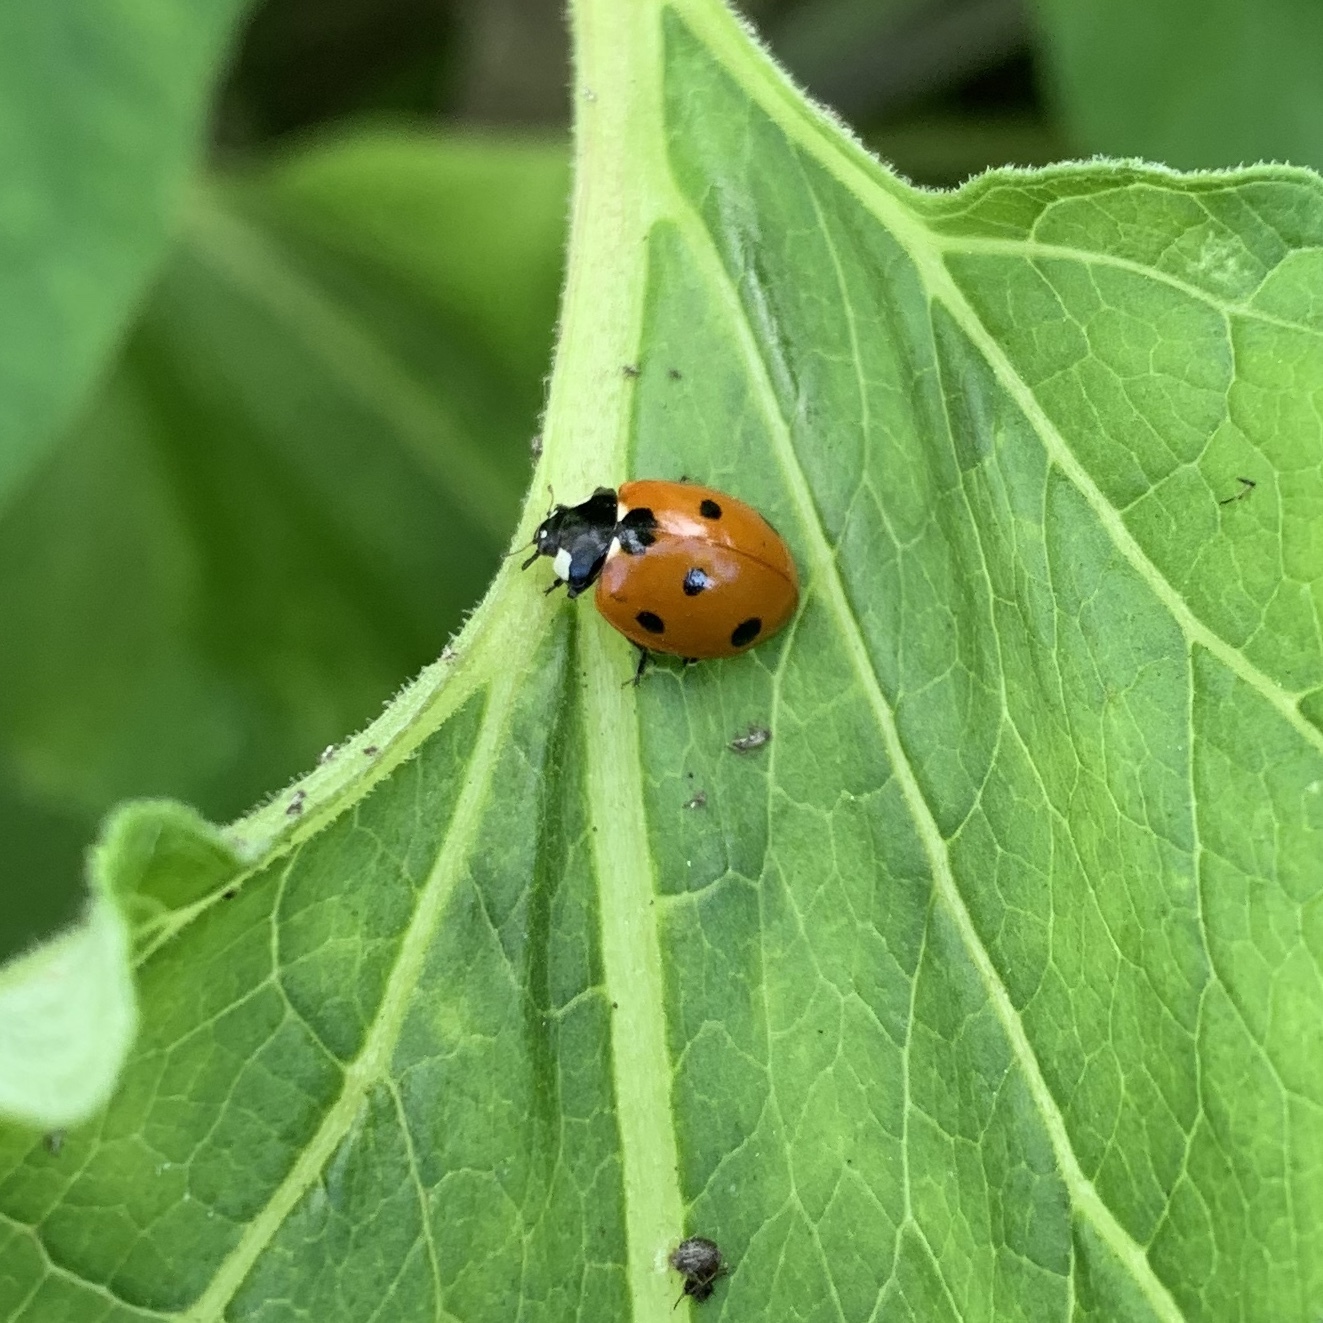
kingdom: Animalia
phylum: Arthropoda
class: Insecta
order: Coleoptera
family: Coccinellidae
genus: Coccinella
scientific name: Coccinella septempunctata
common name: Sevenspotted lady beetle
